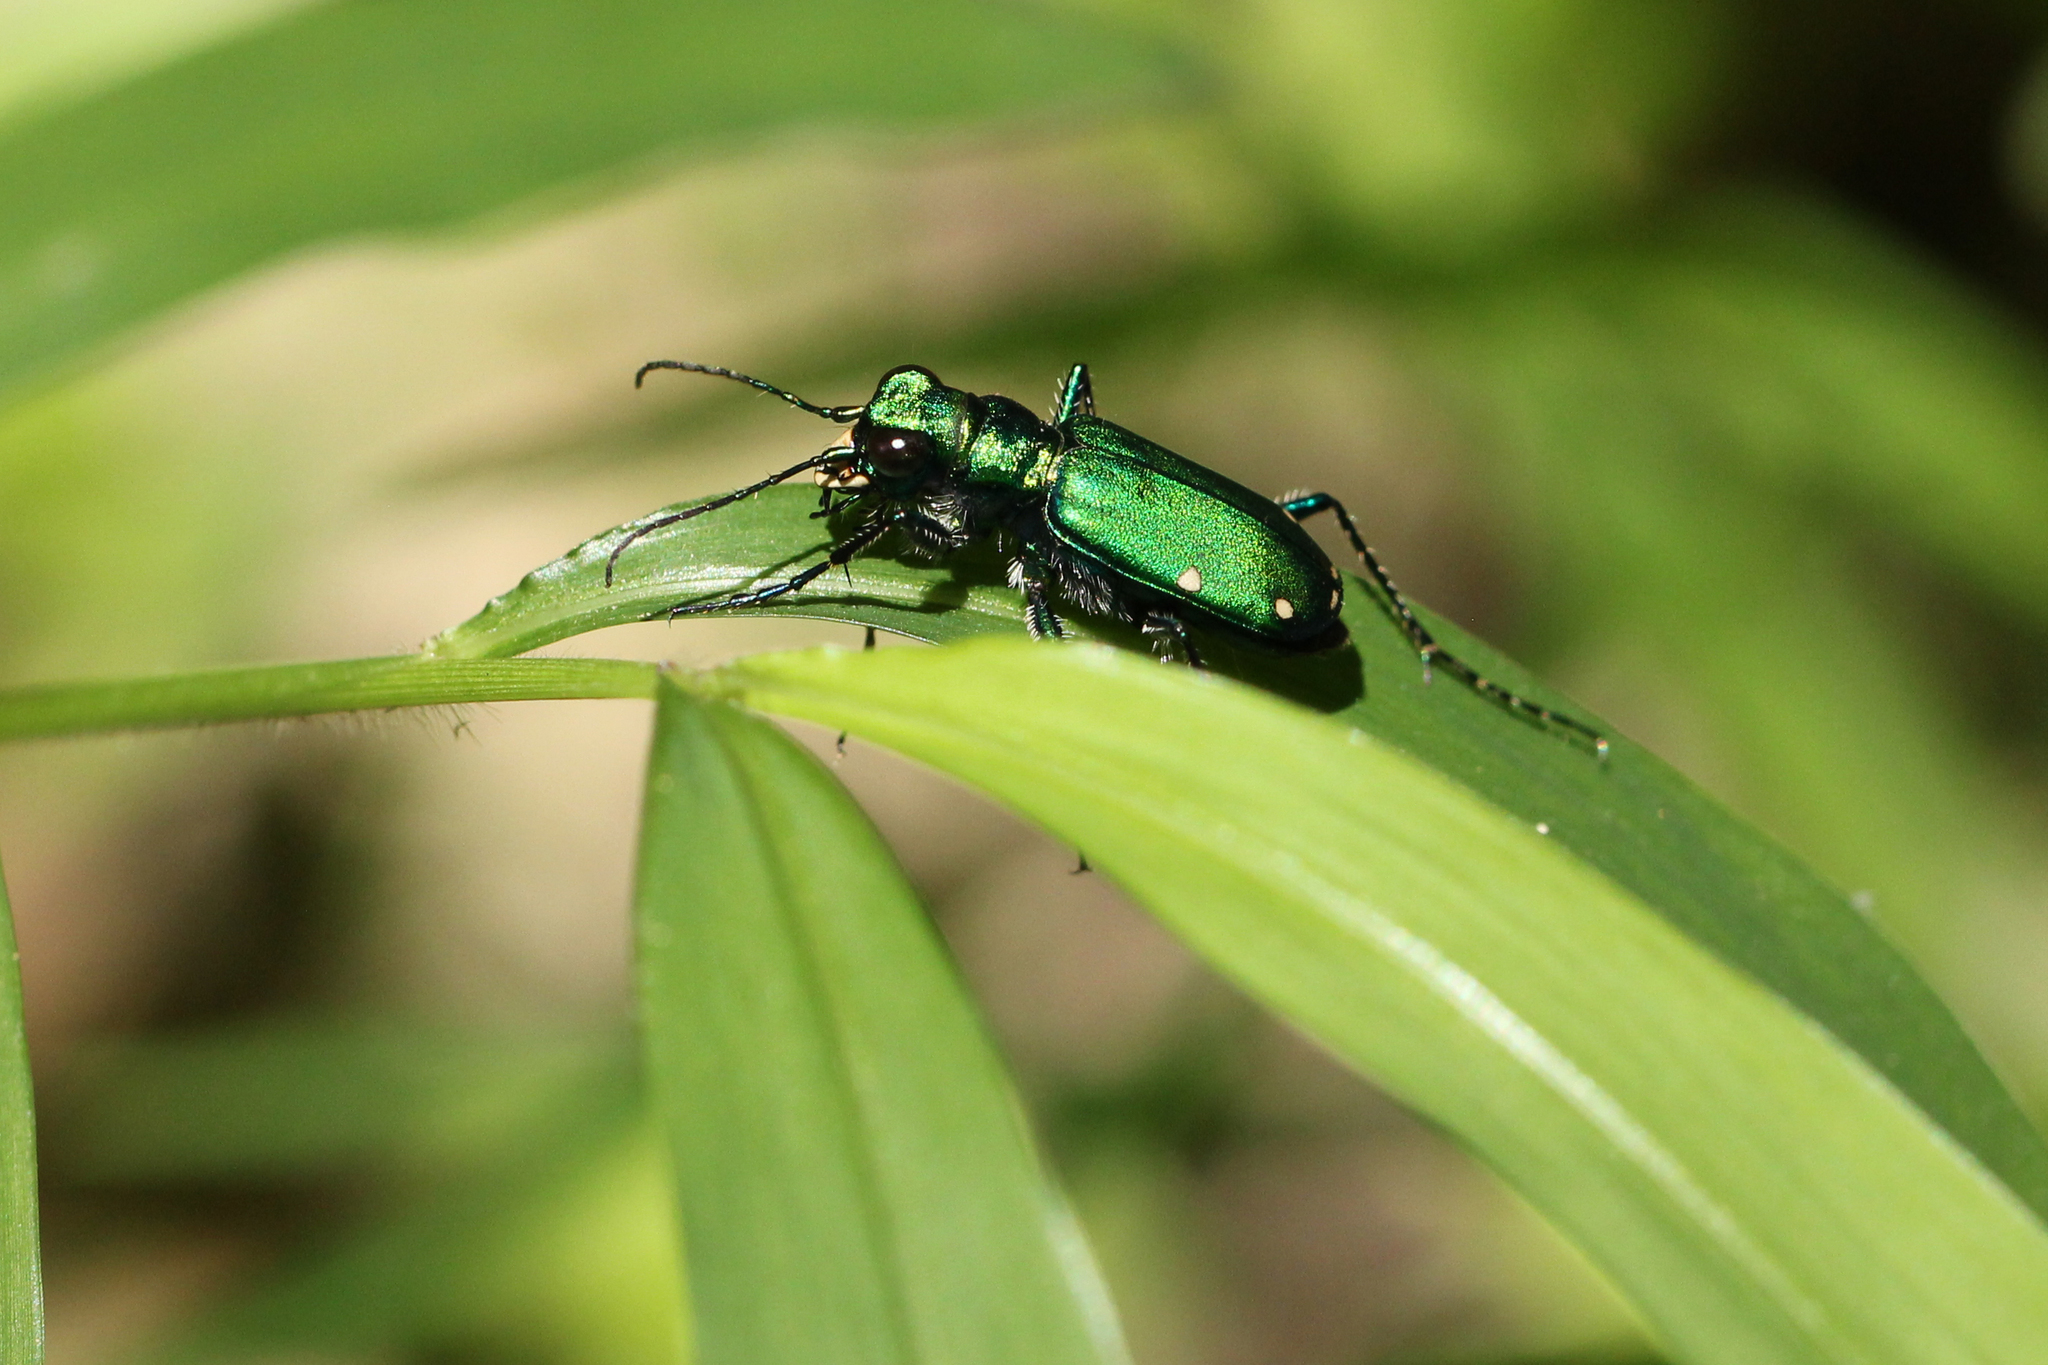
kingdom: Animalia
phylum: Arthropoda
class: Insecta
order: Coleoptera
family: Carabidae
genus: Cicindela
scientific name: Cicindela sexguttata
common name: Six-spotted tiger beetle
